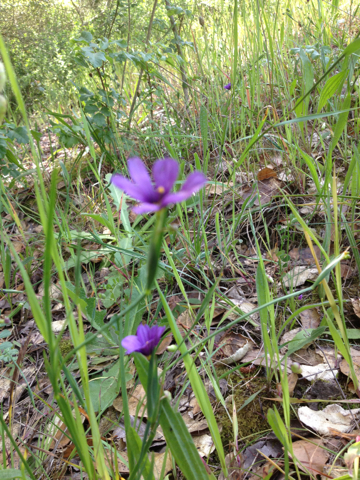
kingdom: Plantae
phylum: Tracheophyta
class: Liliopsida
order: Asparagales
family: Iridaceae
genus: Sisyrinchium
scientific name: Sisyrinchium bellum
